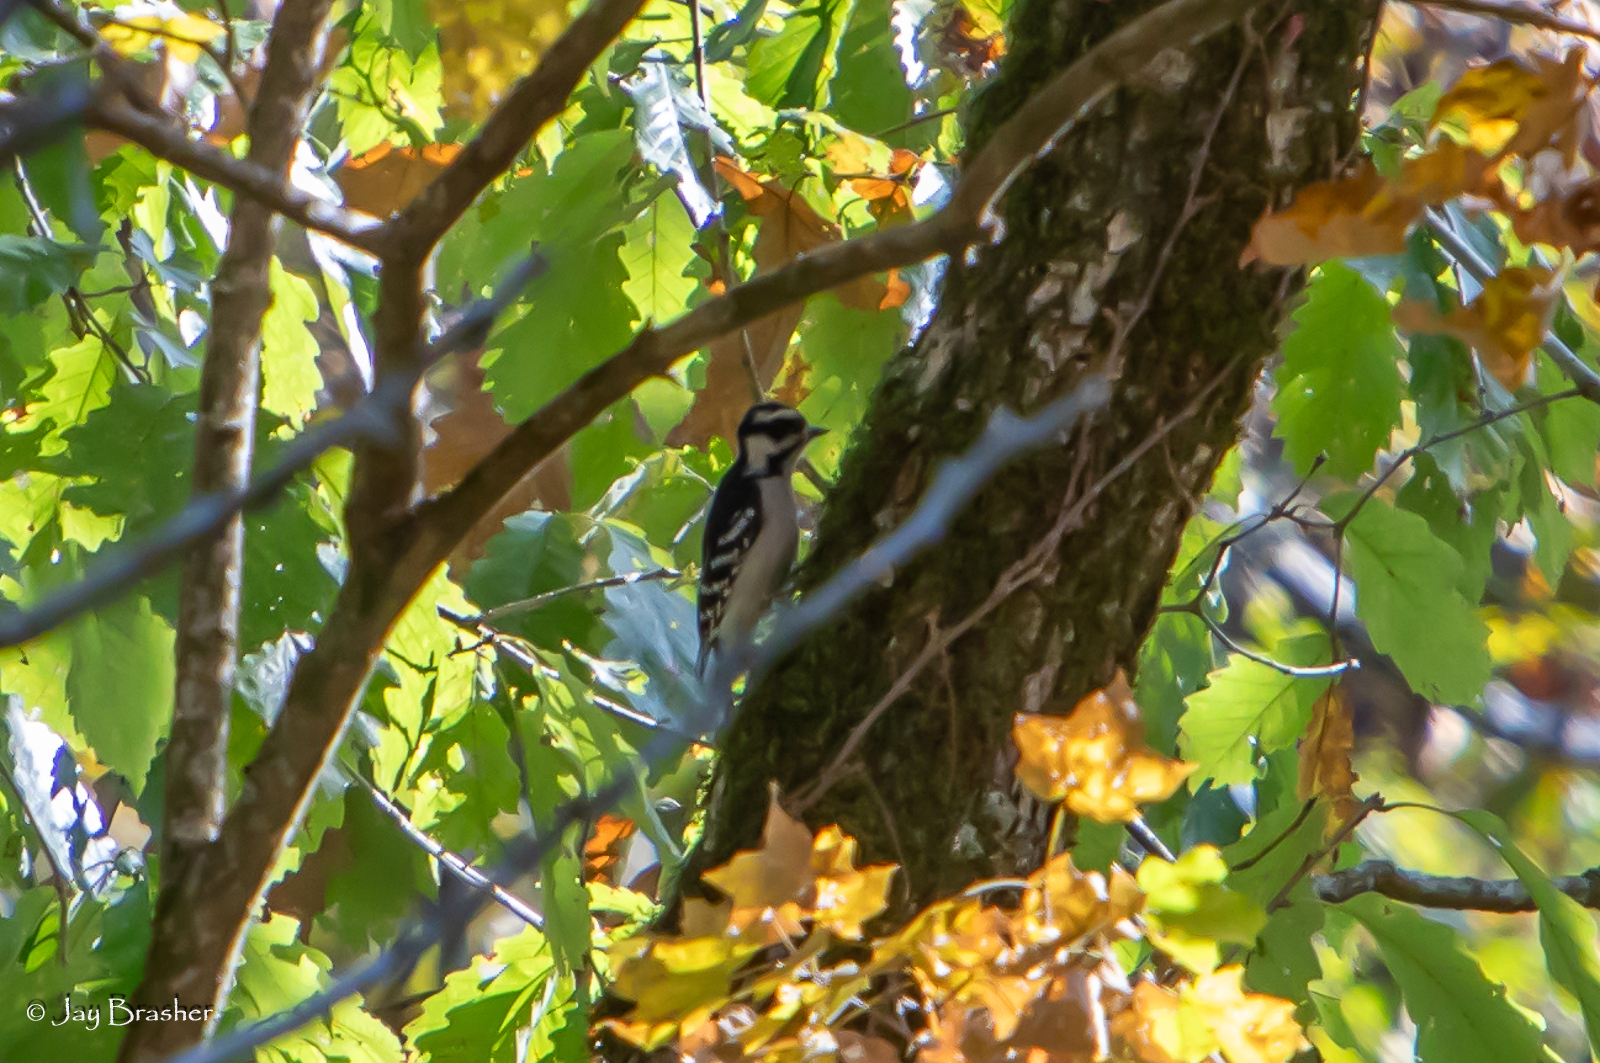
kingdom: Animalia
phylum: Chordata
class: Aves
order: Piciformes
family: Picidae
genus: Dryobates
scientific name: Dryobates pubescens
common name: Downy woodpecker
